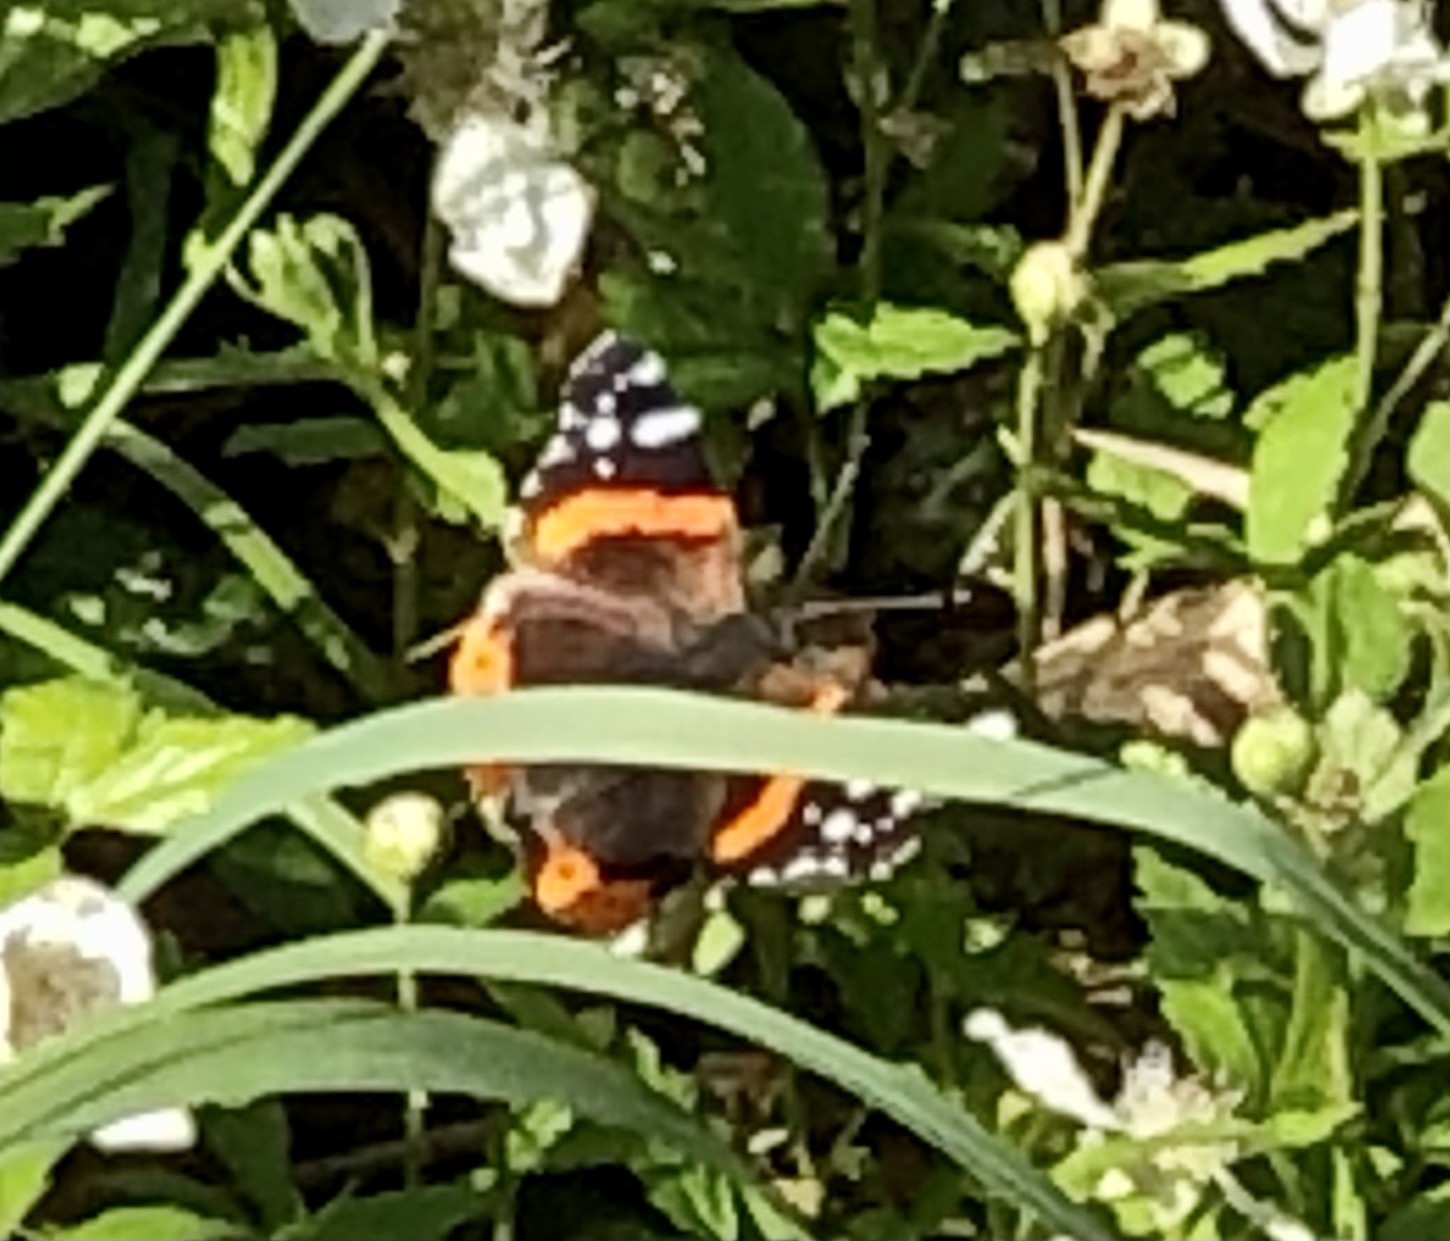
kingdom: Animalia
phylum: Arthropoda
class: Insecta
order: Lepidoptera
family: Nymphalidae
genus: Vanessa
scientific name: Vanessa atalanta
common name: Red admiral
